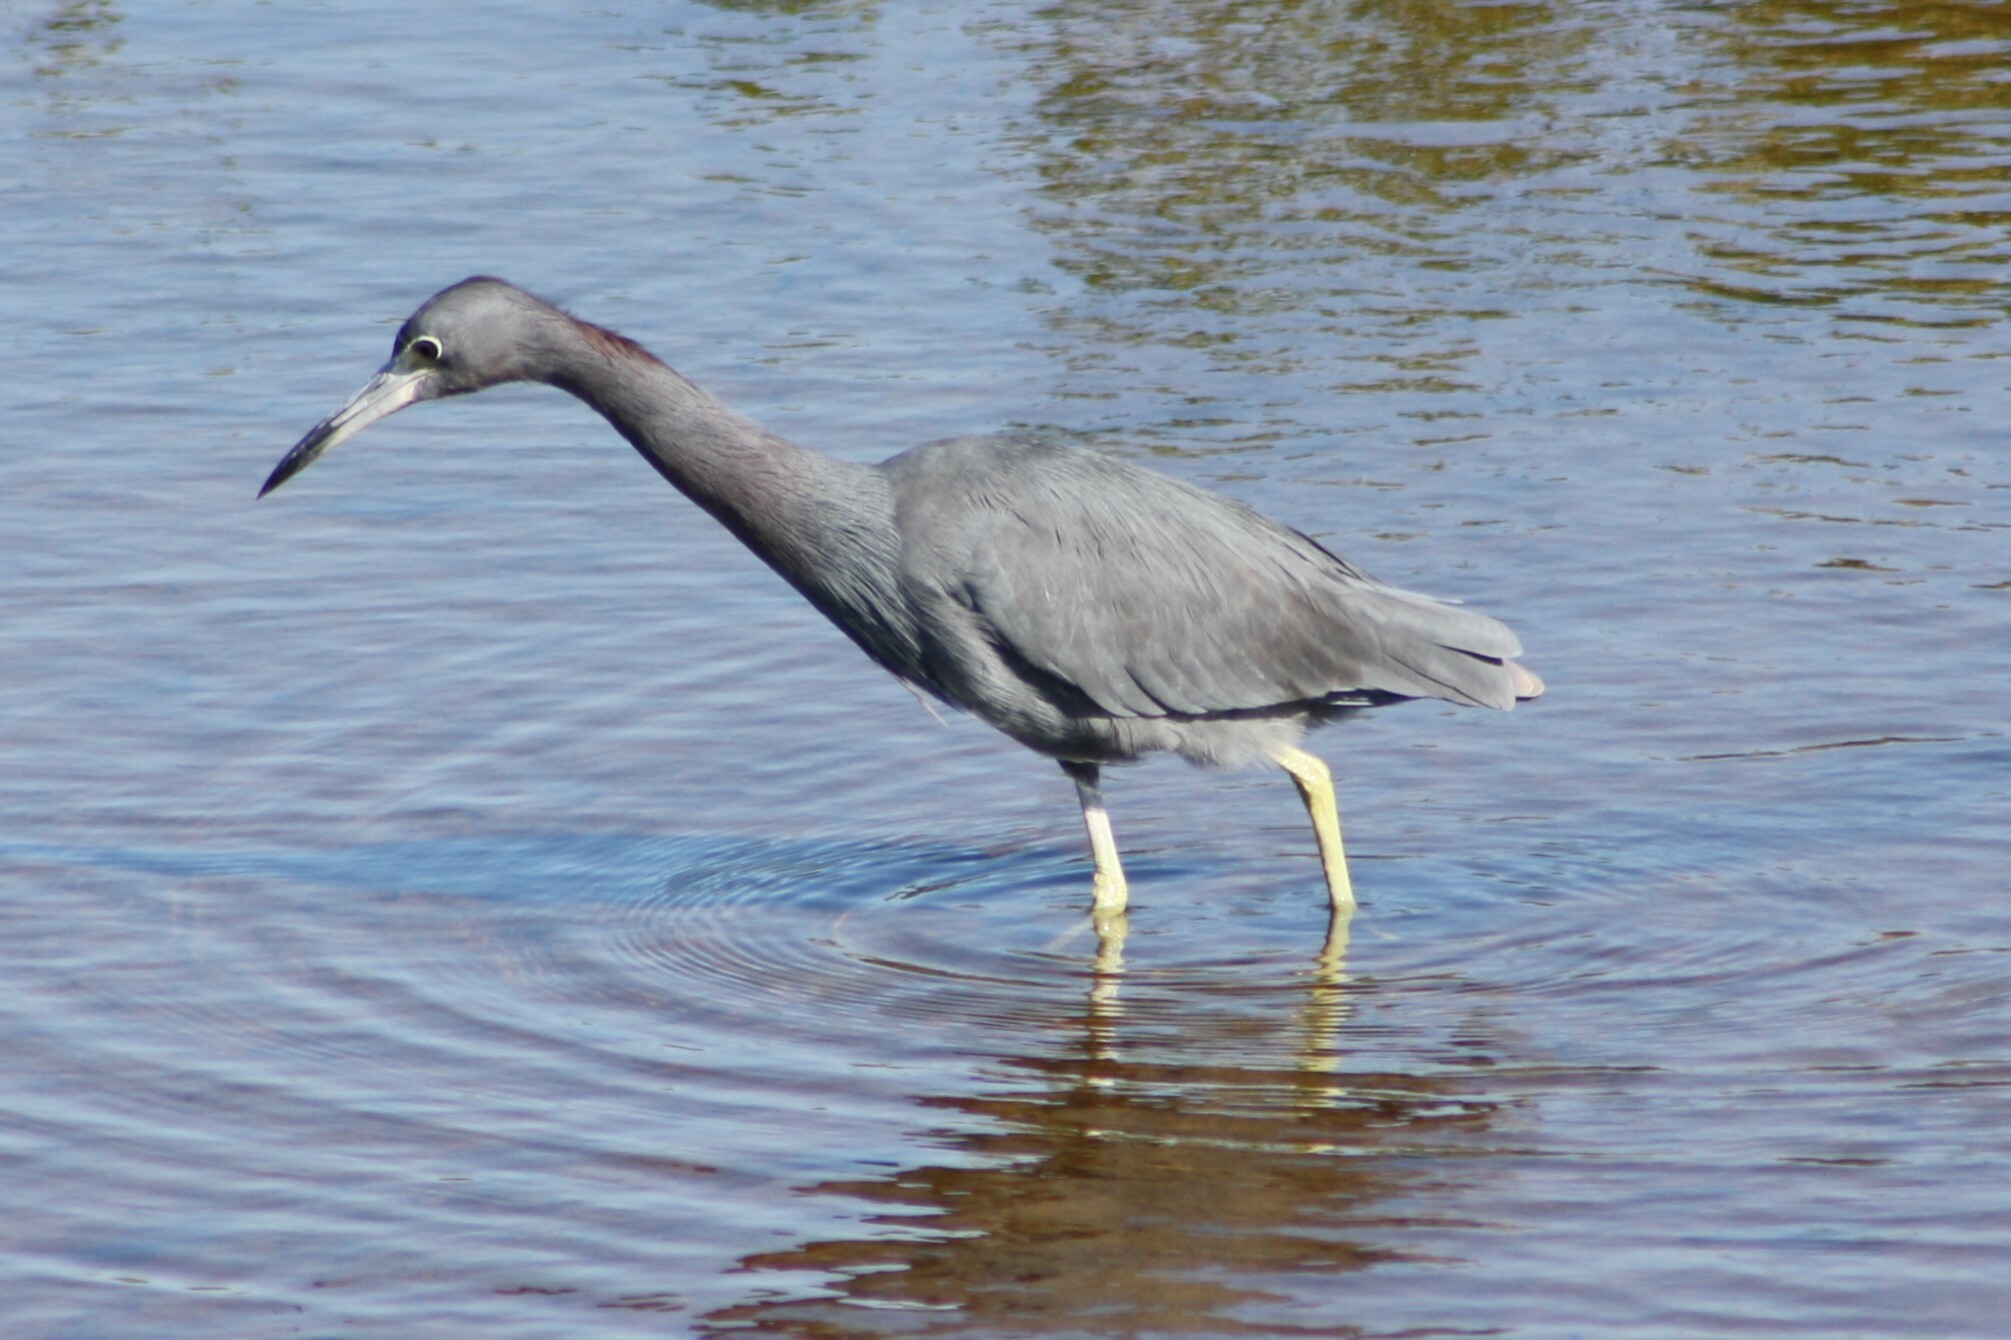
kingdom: Animalia
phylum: Chordata
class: Aves
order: Pelecaniformes
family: Ardeidae
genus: Egretta
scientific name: Egretta caerulea
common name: Little blue heron
